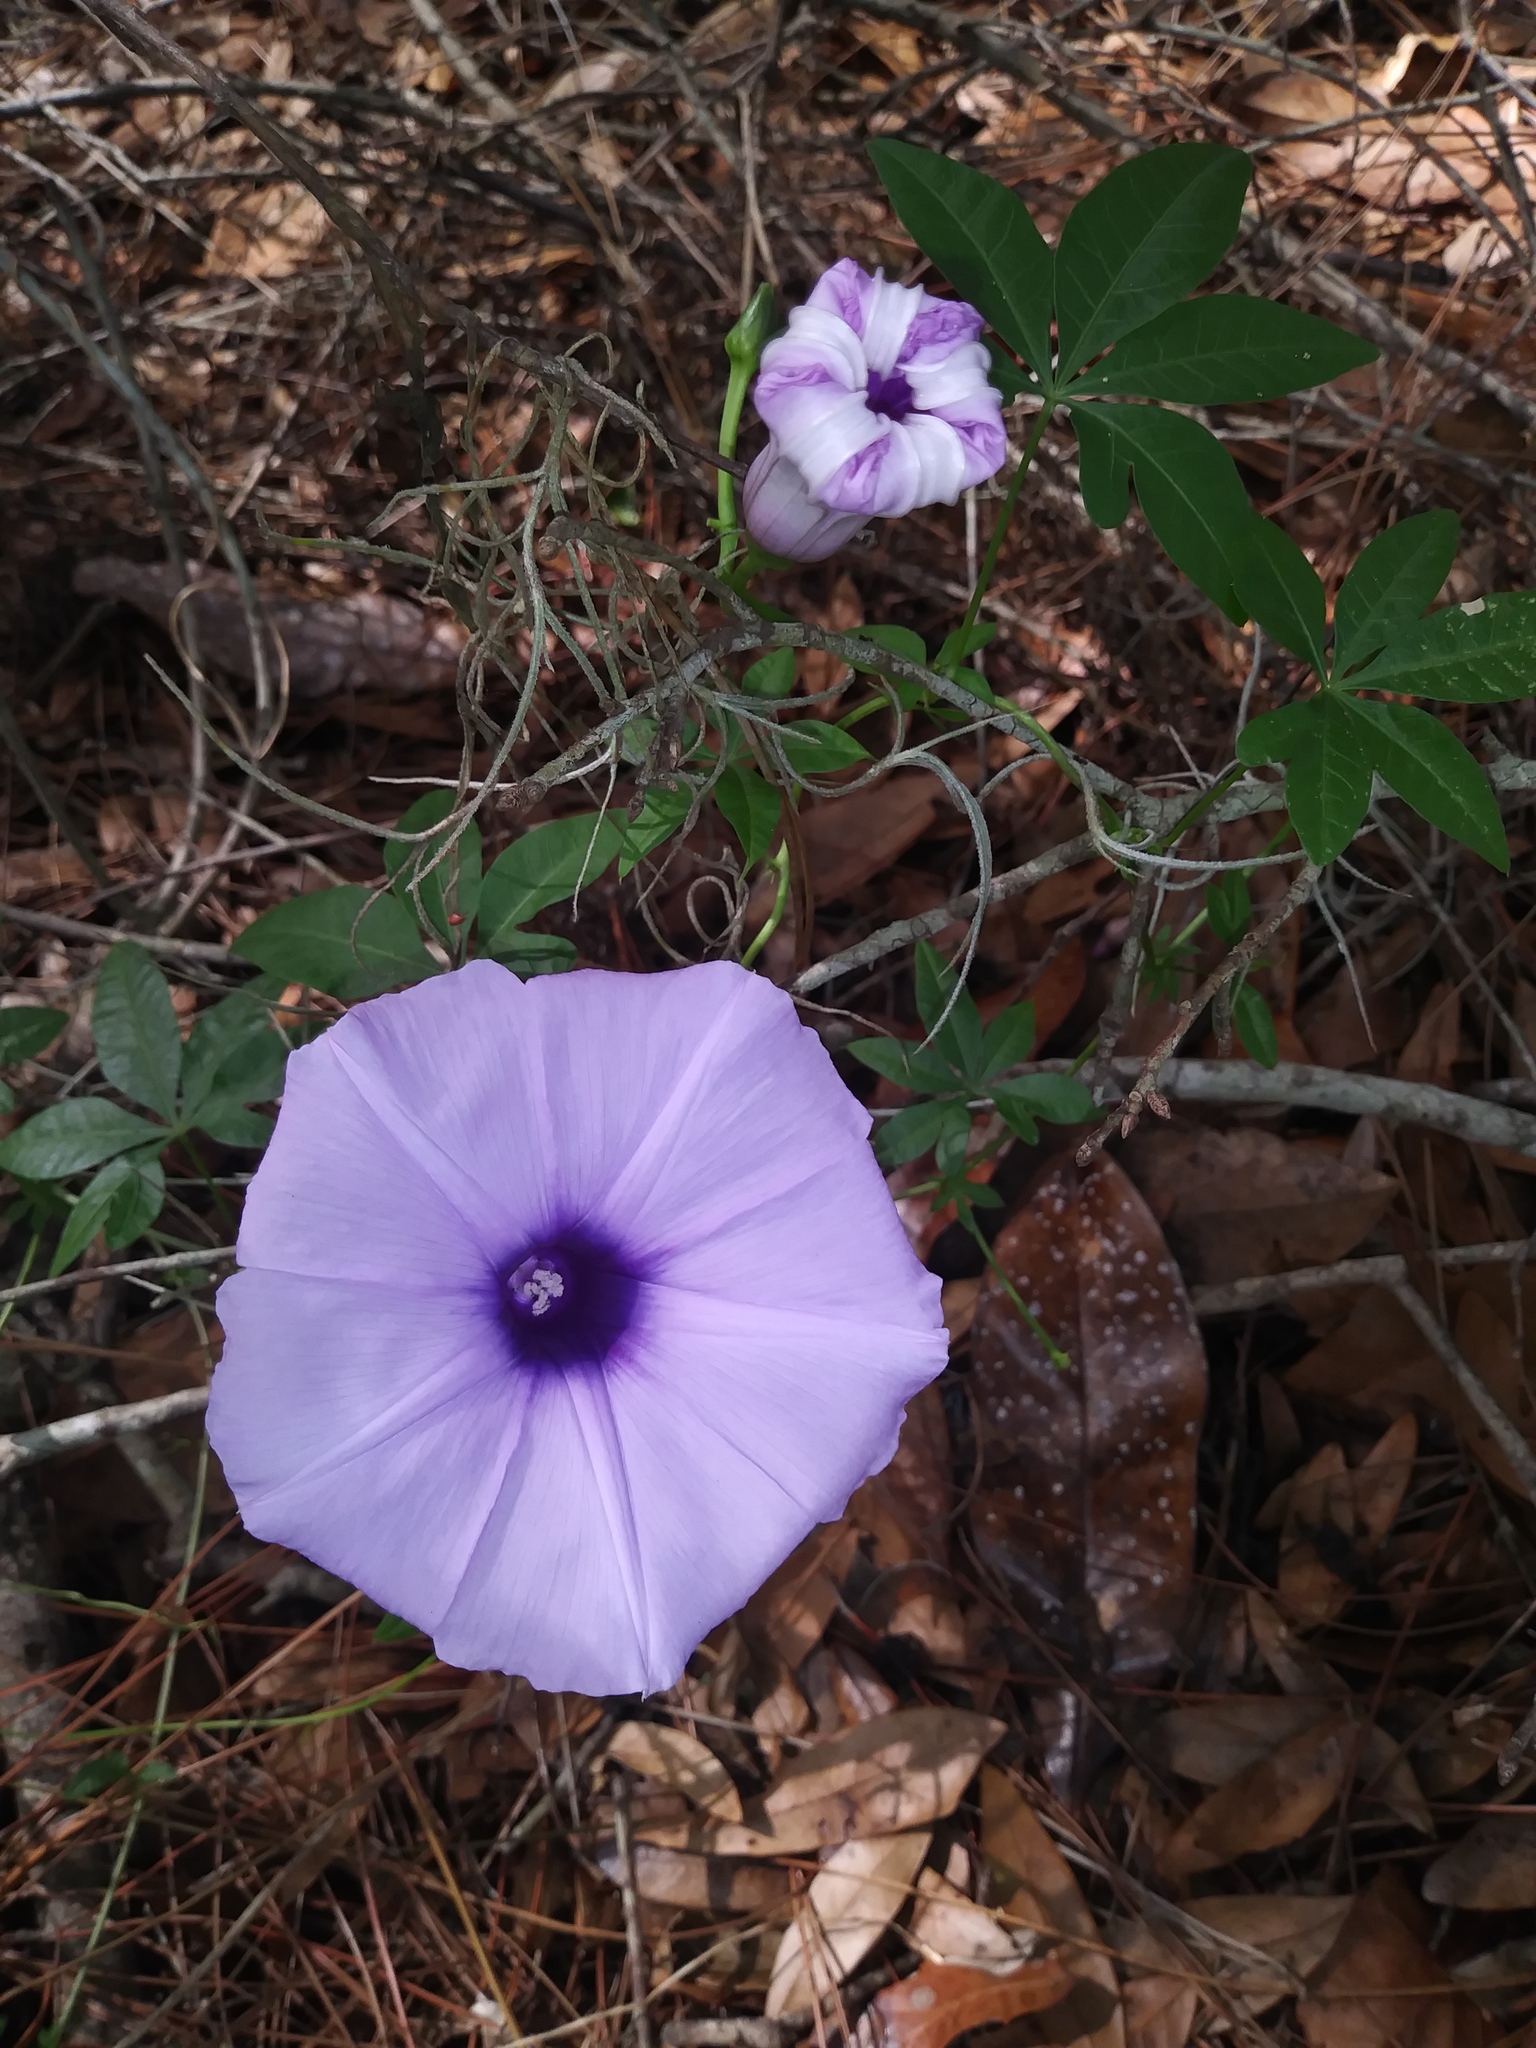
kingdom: Plantae
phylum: Tracheophyta
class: Magnoliopsida
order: Solanales
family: Convolvulaceae
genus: Ipomoea
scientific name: Ipomoea cairica
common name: Mile a minute vine
